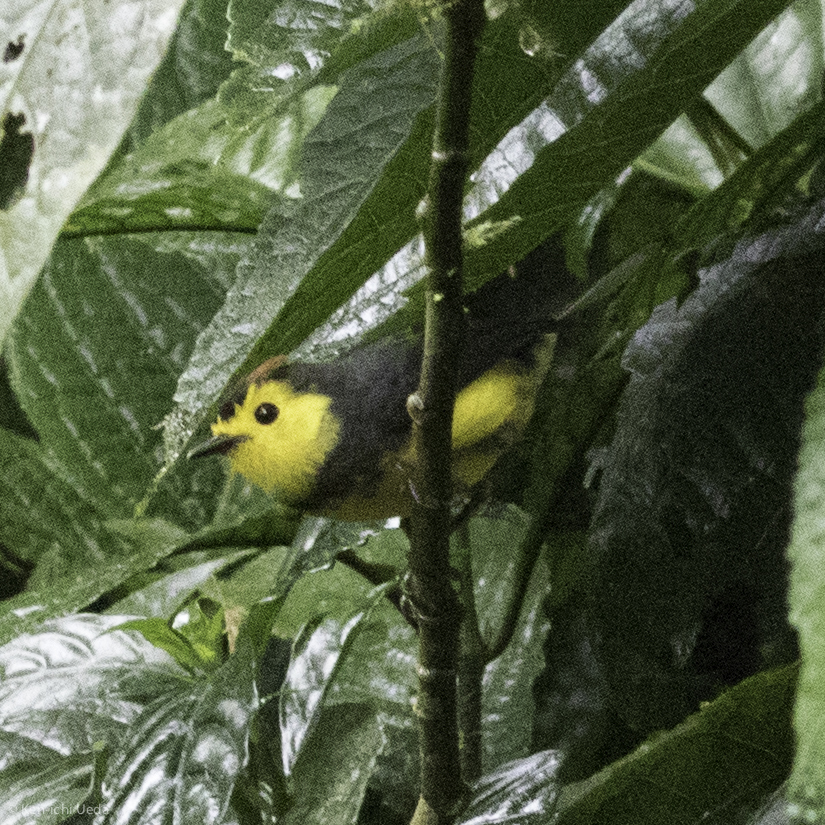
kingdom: Animalia
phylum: Chordata
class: Aves
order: Passeriformes
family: Parulidae
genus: Myioborus
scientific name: Myioborus torquatus
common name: Collared whitestart
